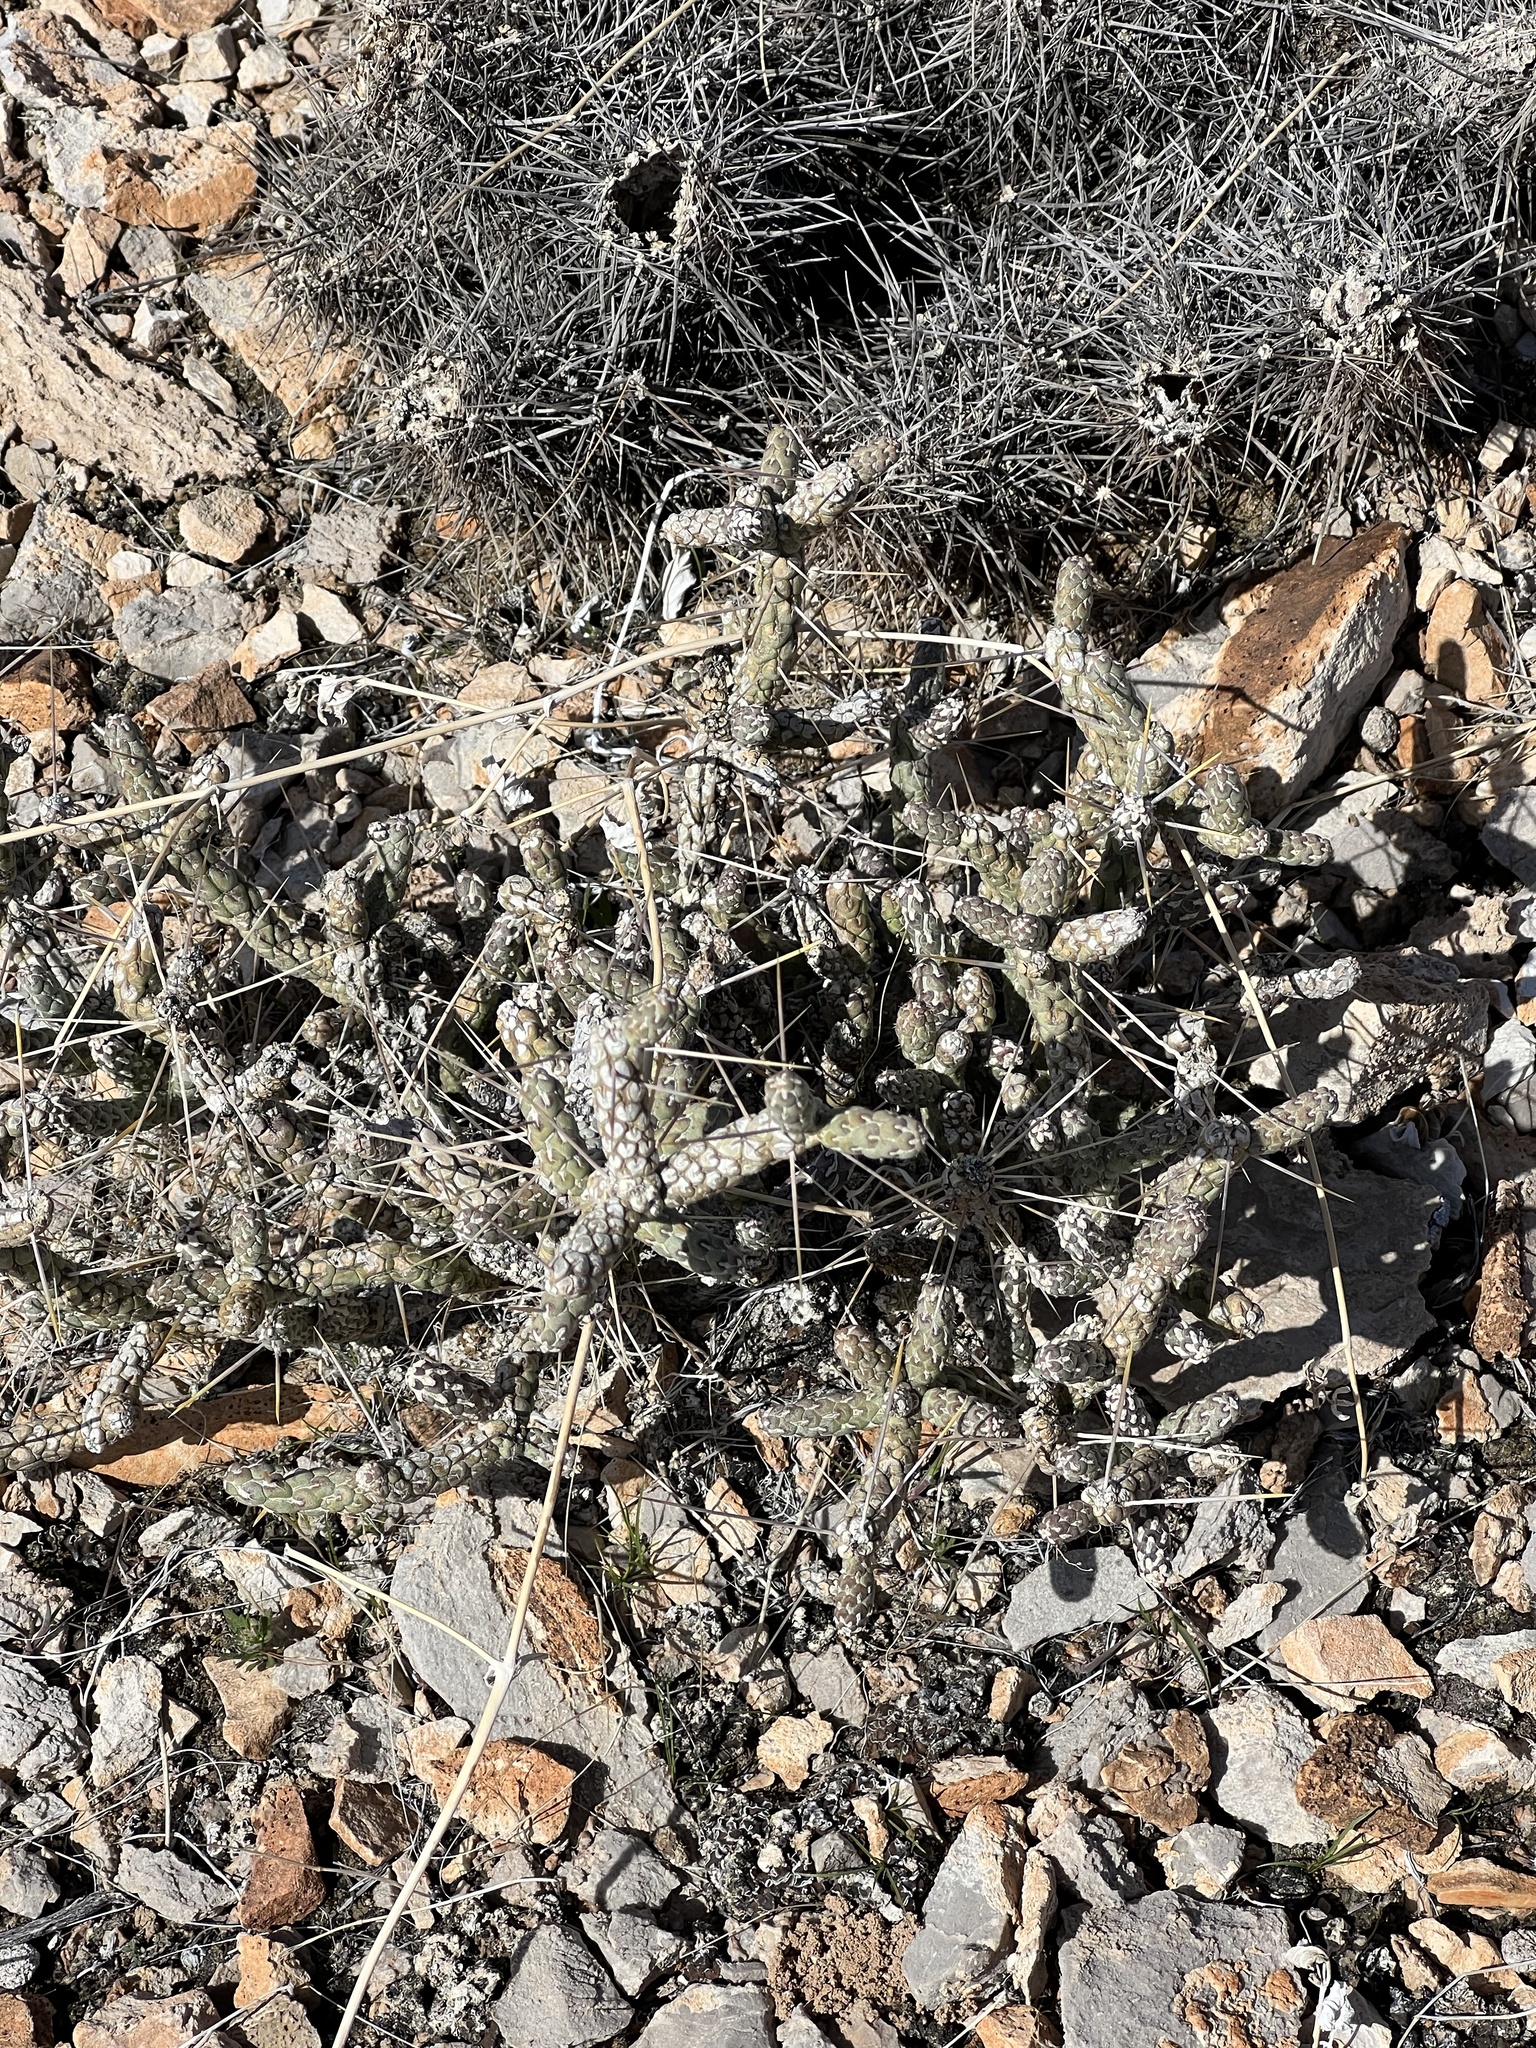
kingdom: Plantae
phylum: Tracheophyta
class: Magnoliopsida
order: Caryophyllales
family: Cactaceae
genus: Cylindropuntia
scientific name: Cylindropuntia ramosissima
